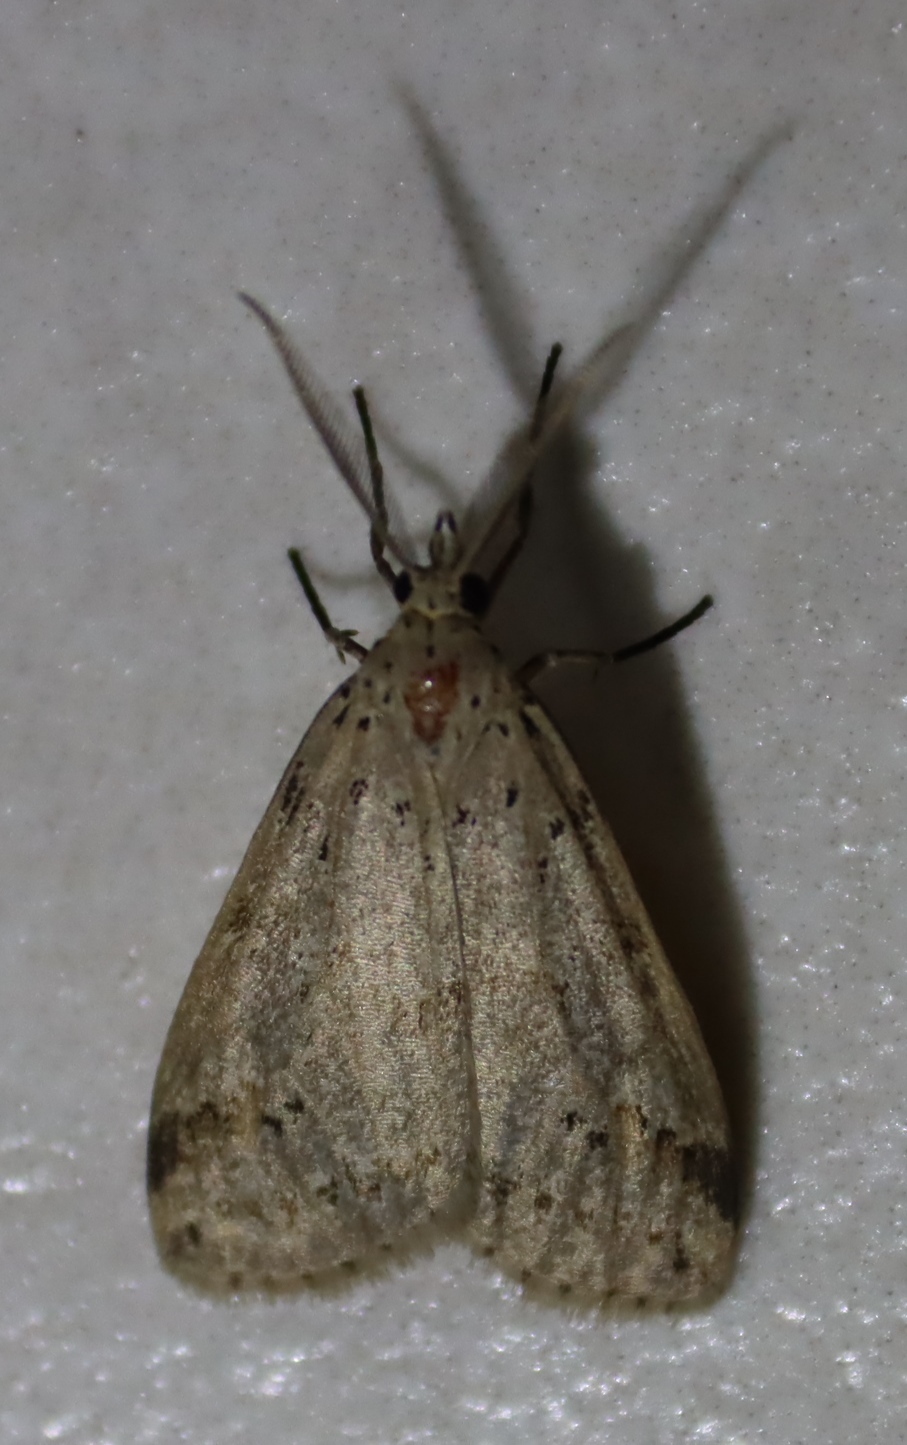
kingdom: Animalia
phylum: Arthropoda
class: Insecta
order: Lepidoptera
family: Erebidae
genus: Galtara
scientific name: Galtara rostrata
